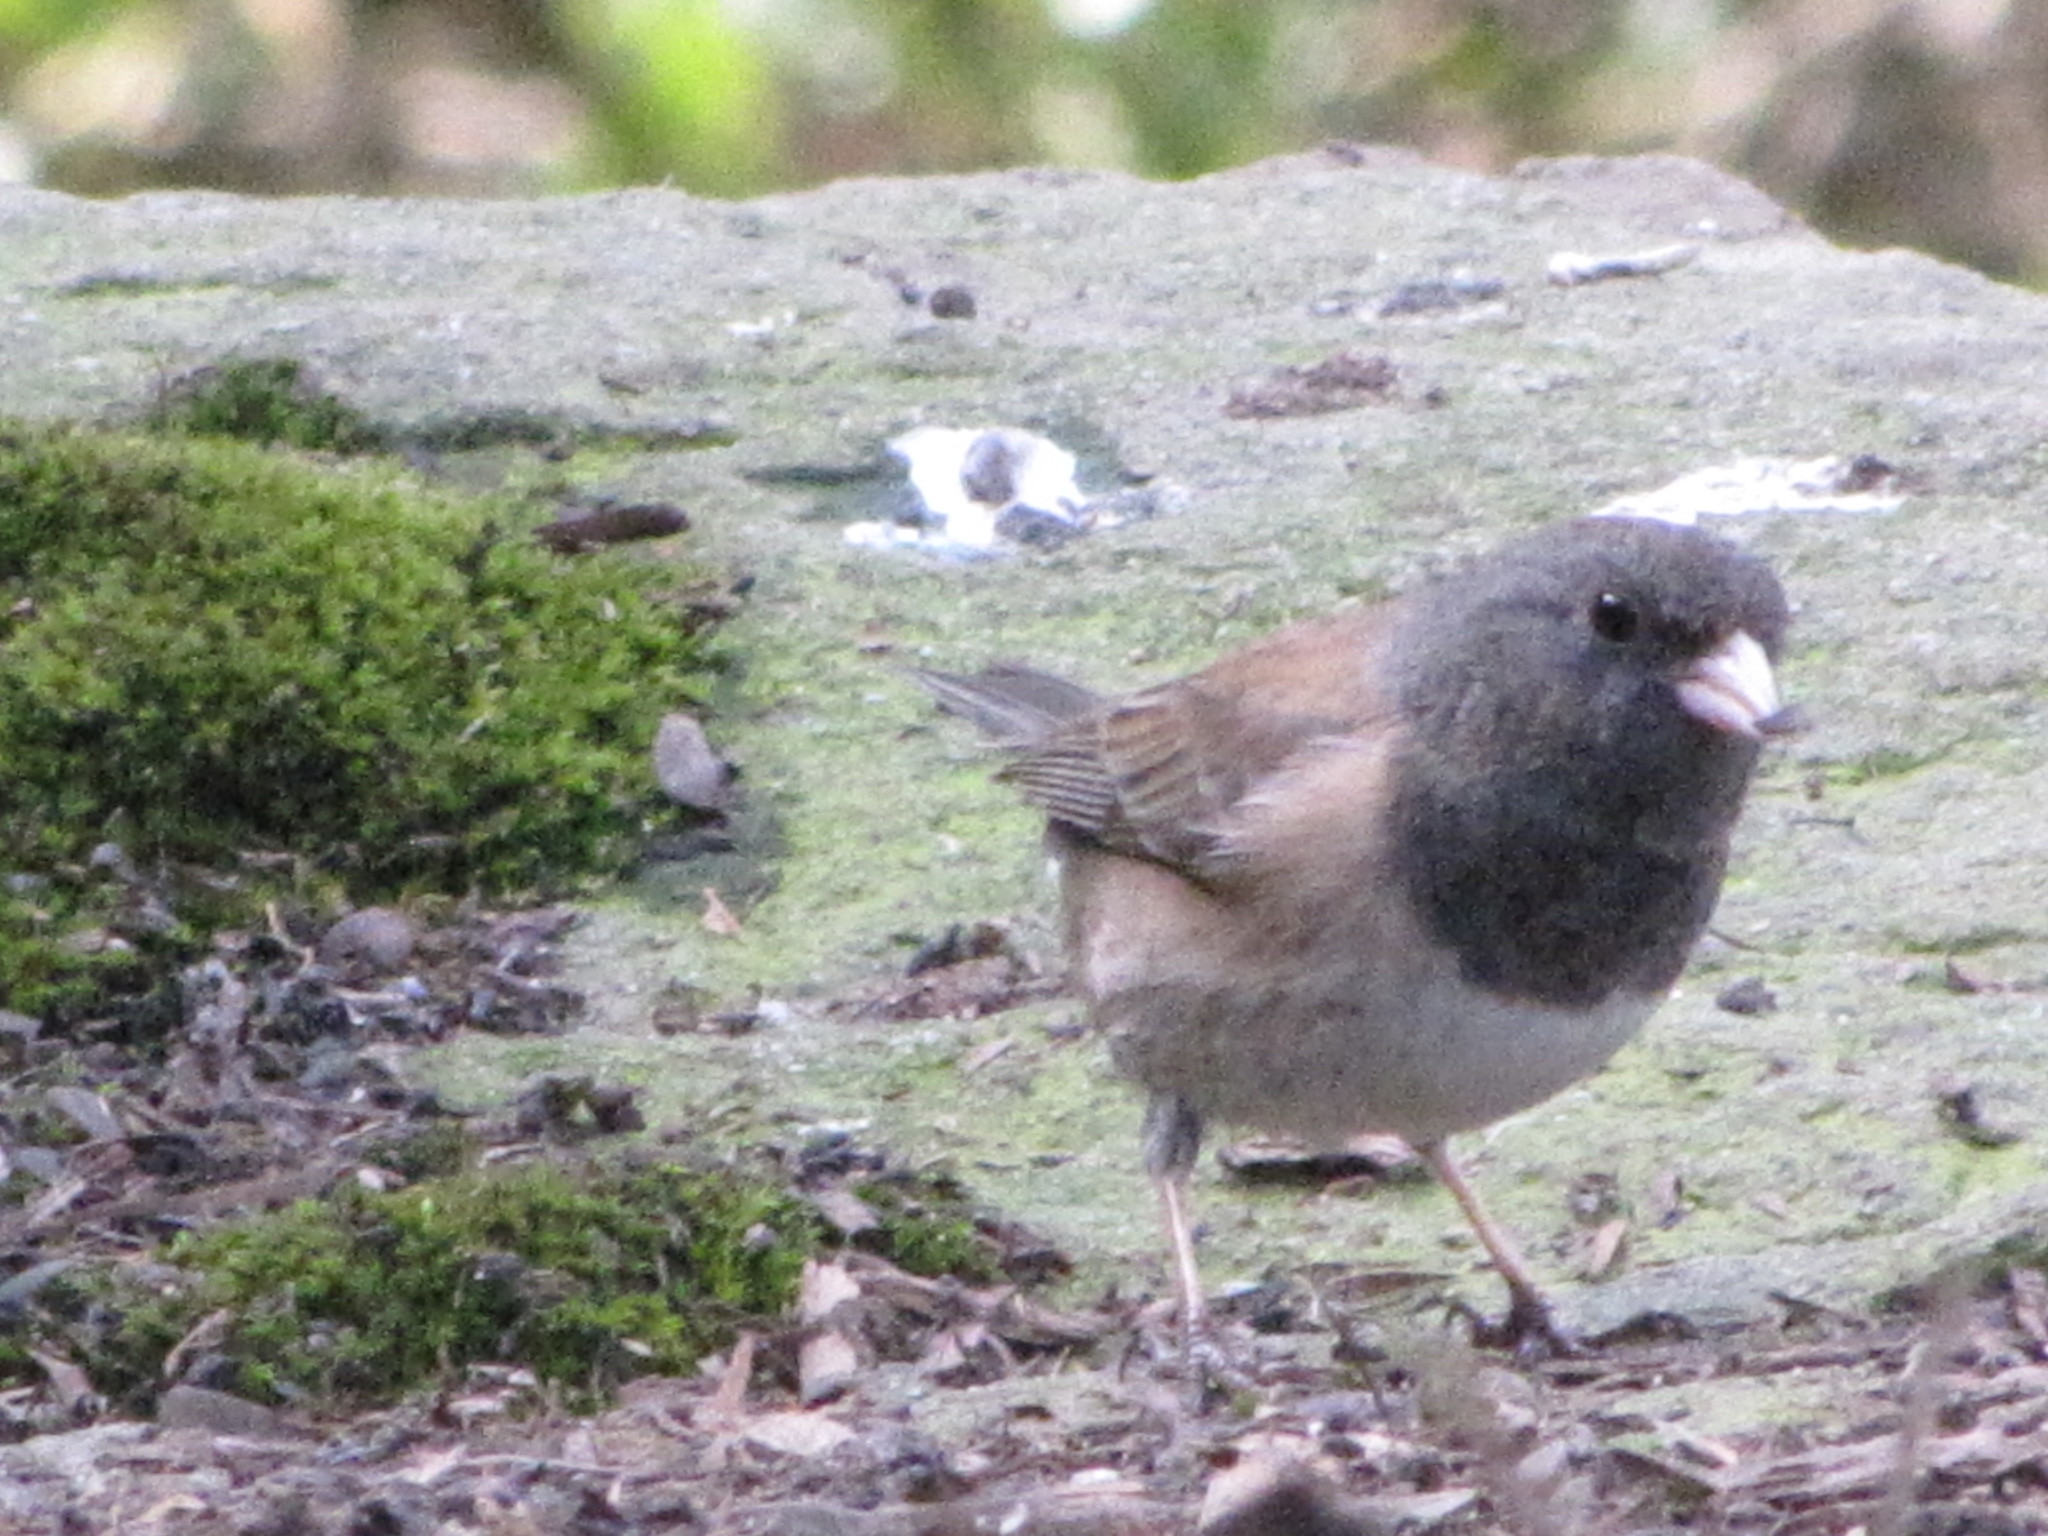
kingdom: Animalia
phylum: Chordata
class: Aves
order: Passeriformes
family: Passerellidae
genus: Junco
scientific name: Junco hyemalis
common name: Dark-eyed junco
